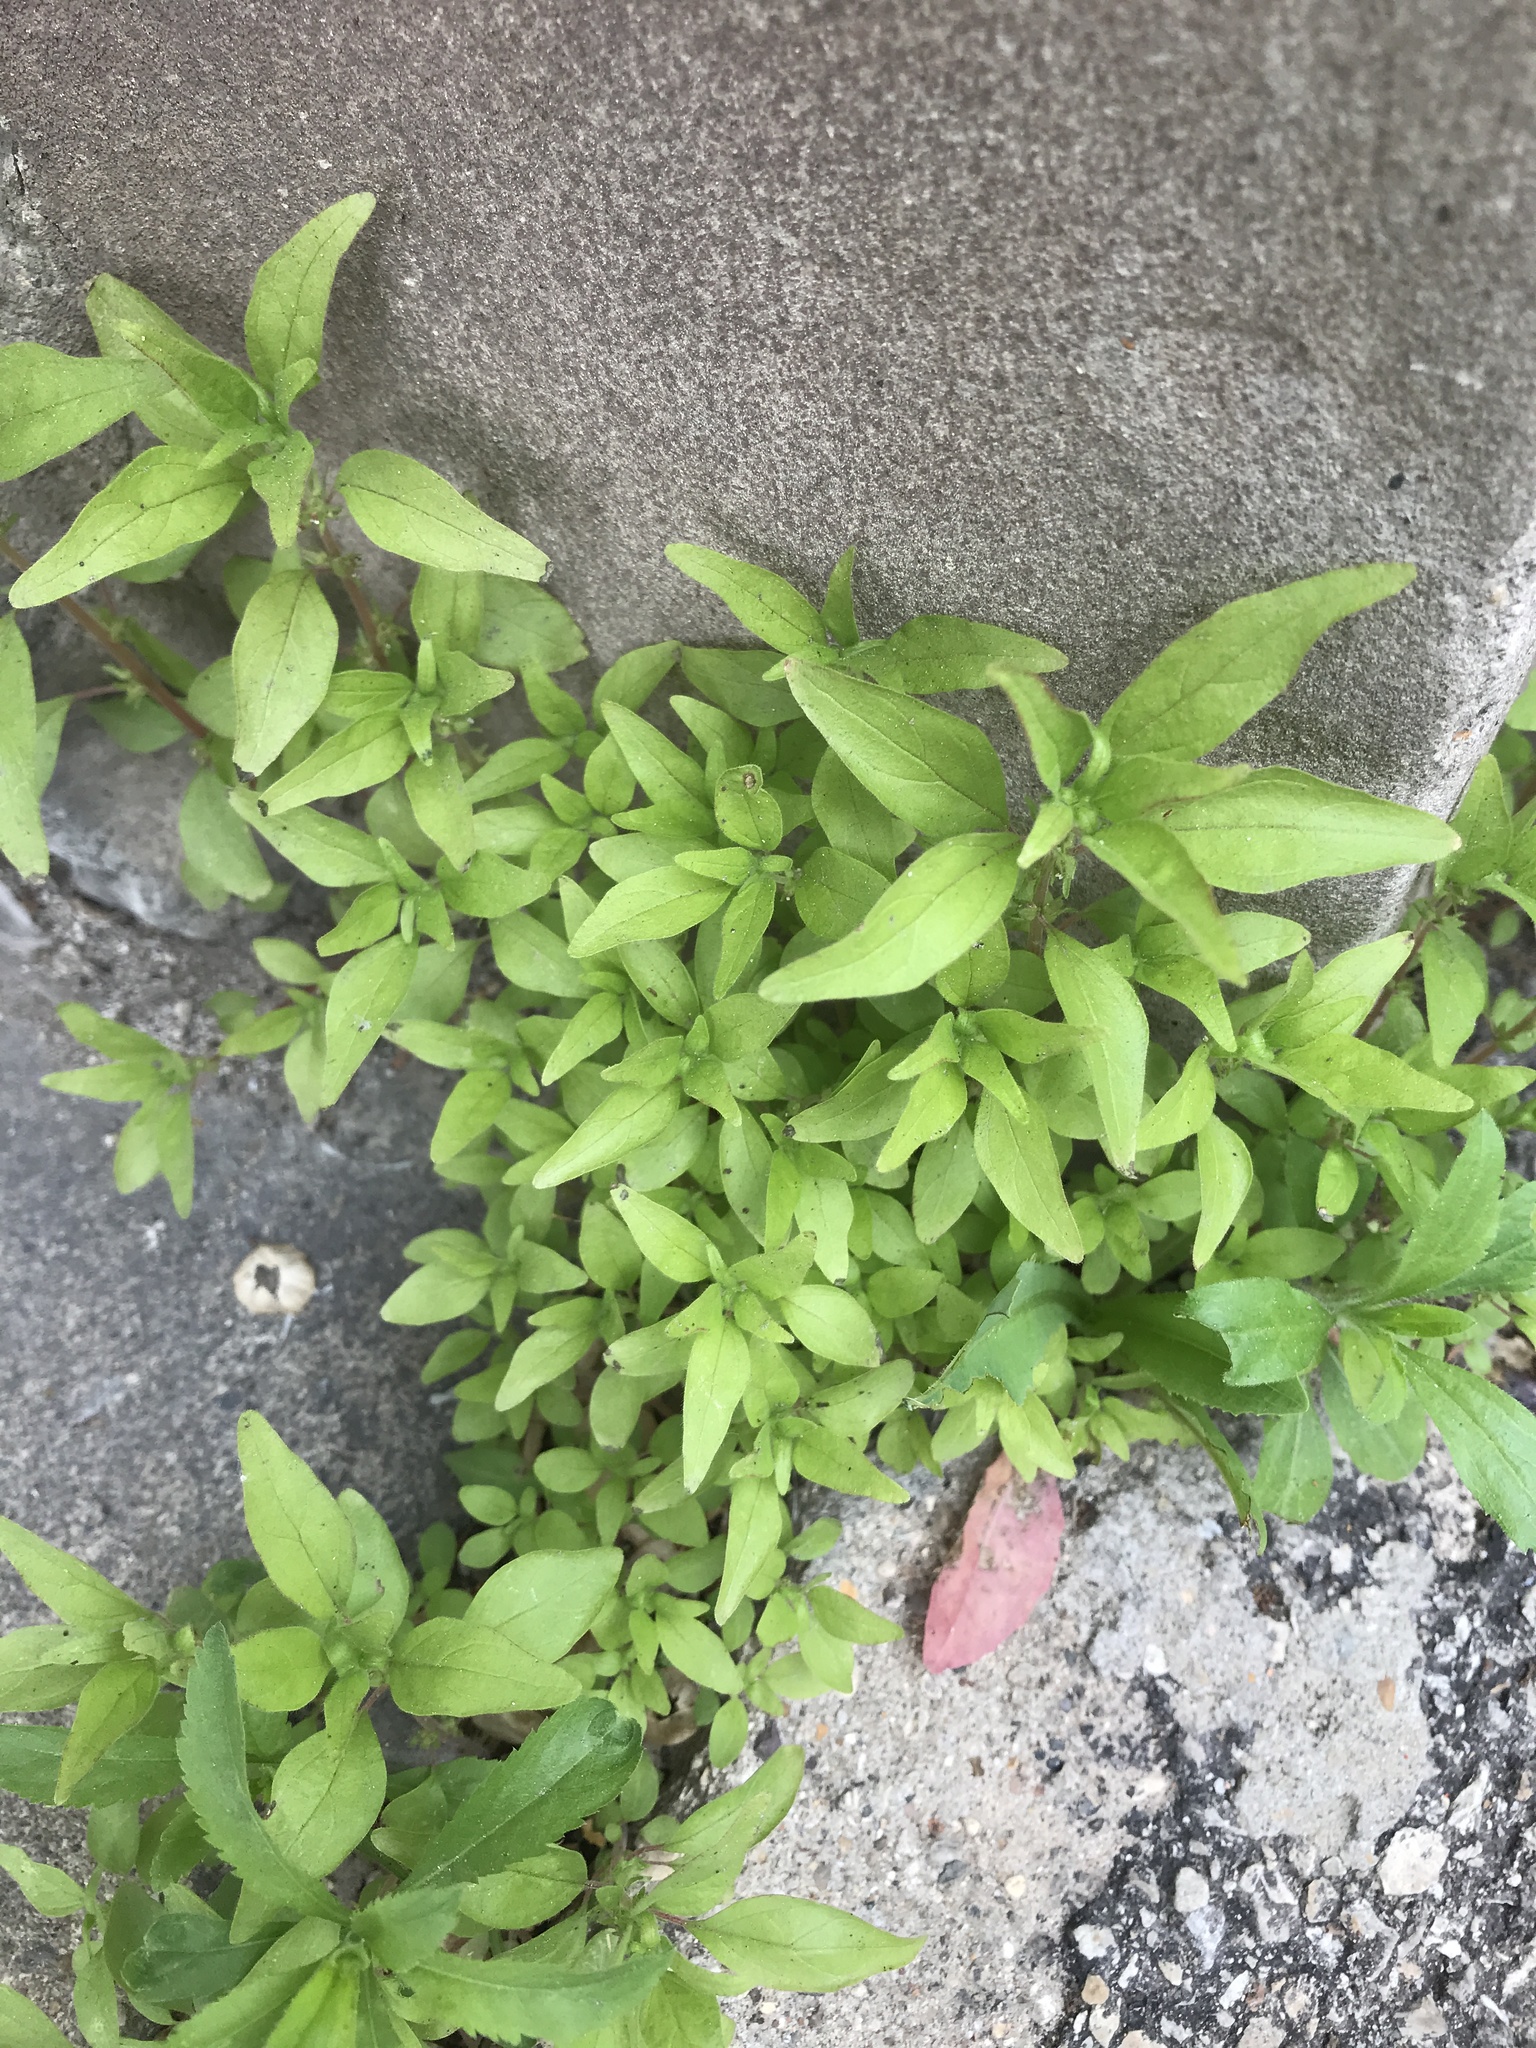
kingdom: Plantae
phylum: Tracheophyta
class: Magnoliopsida
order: Rosales
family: Urticaceae
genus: Parietaria
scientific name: Parietaria pensylvanica
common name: Pennsylvania pellitory
